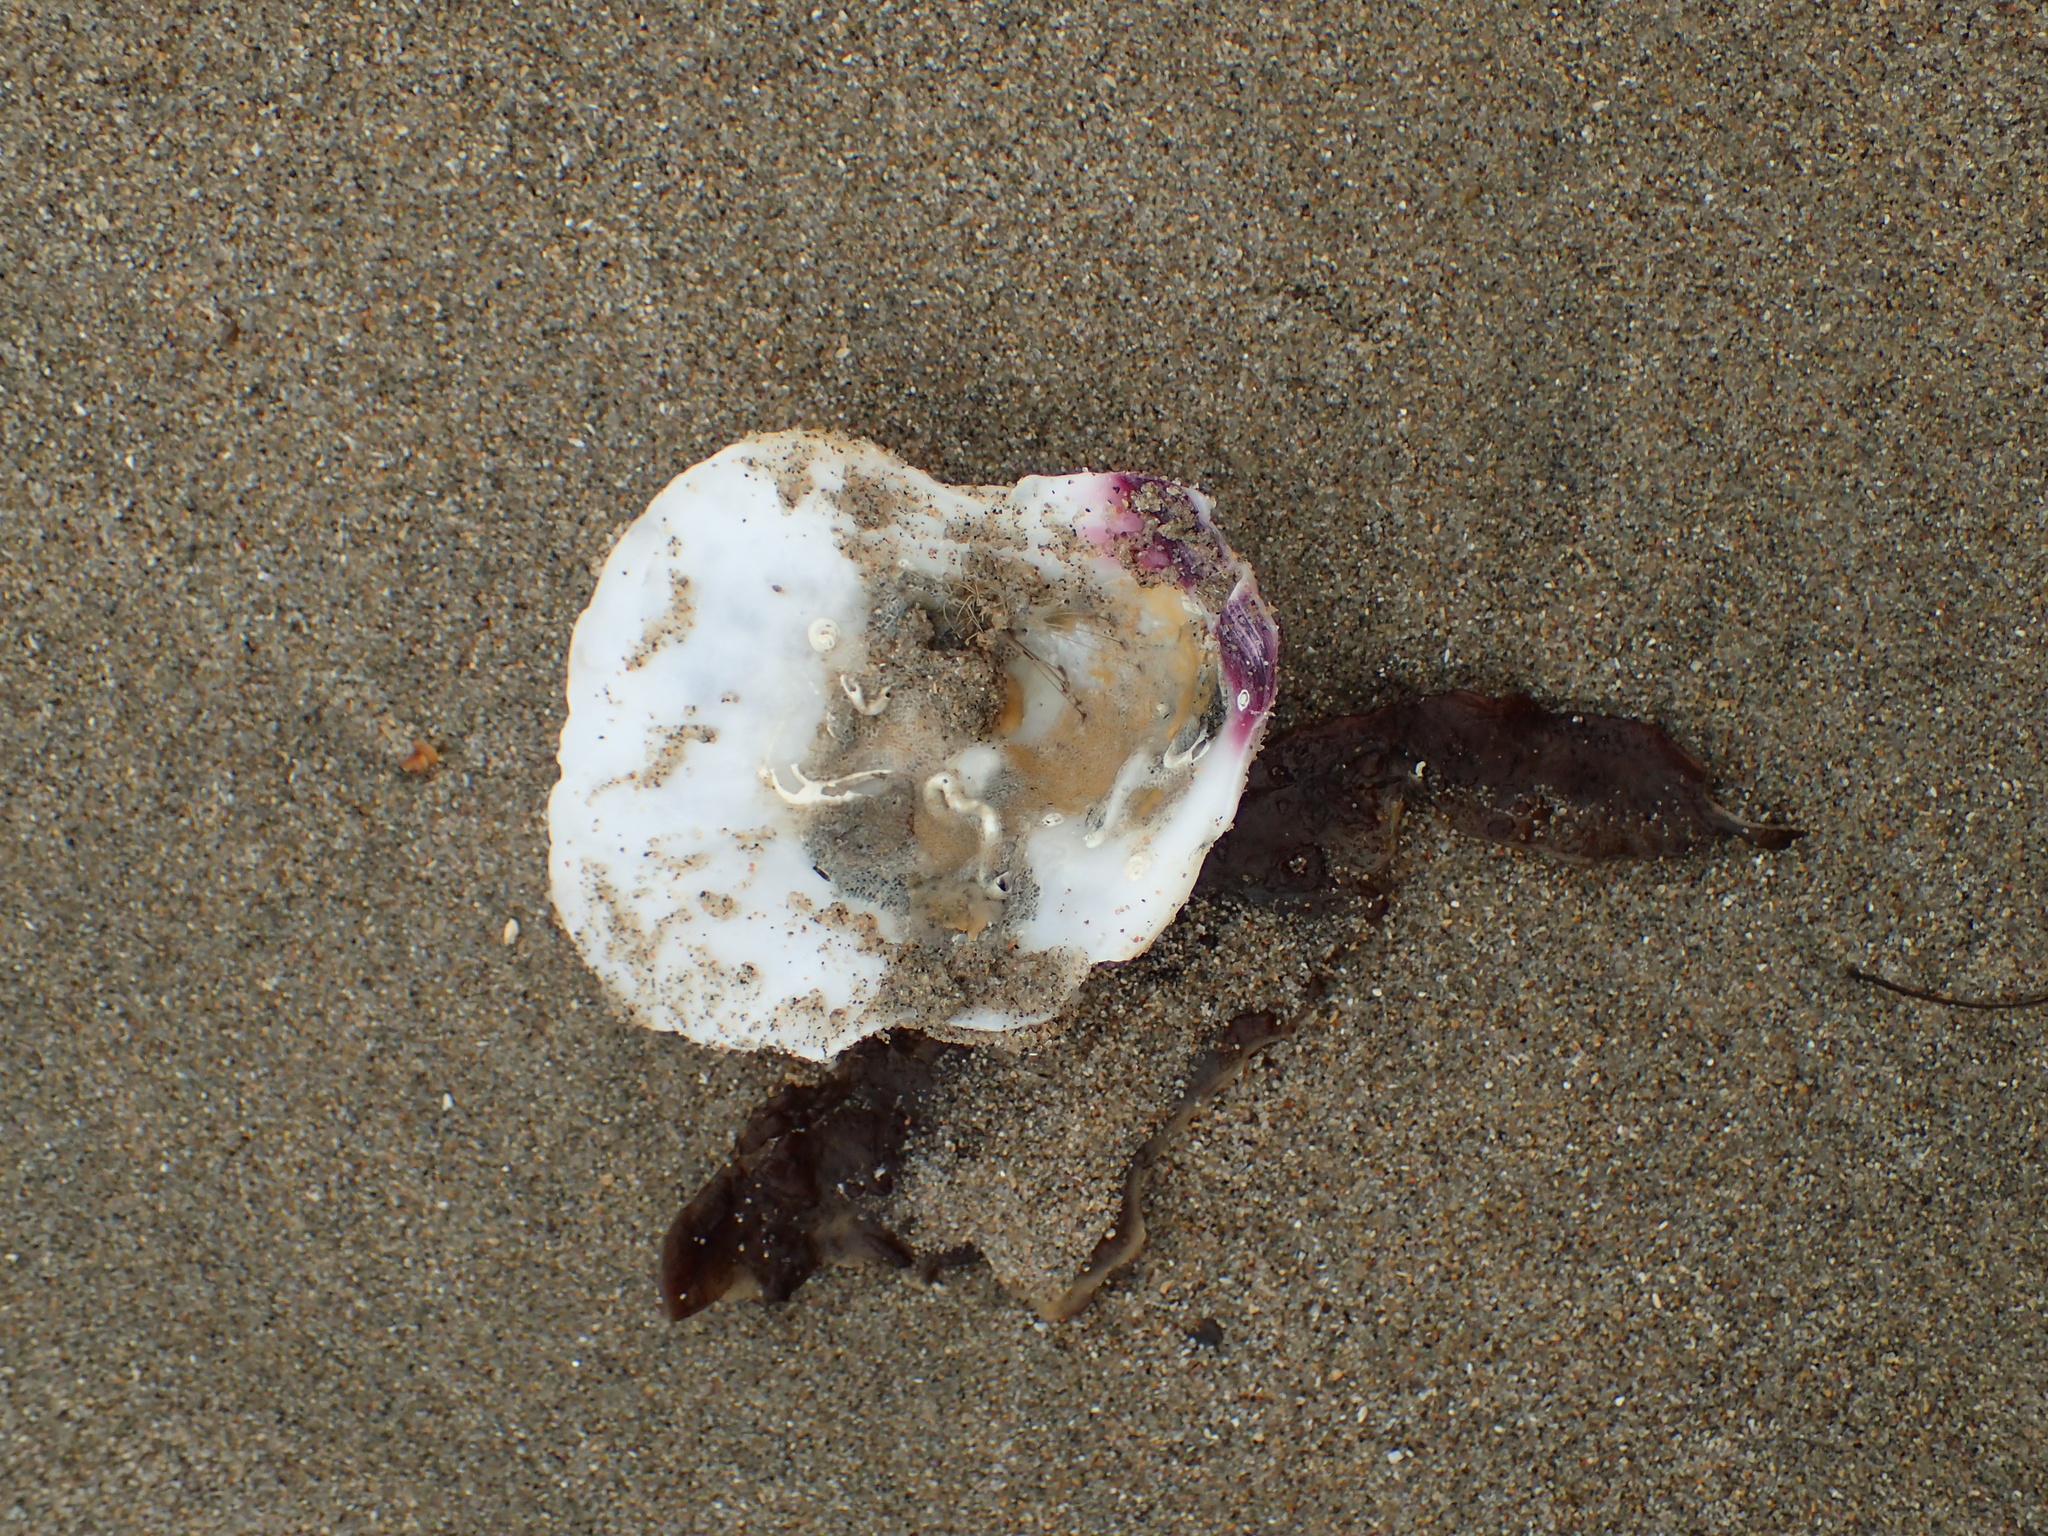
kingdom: Animalia
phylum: Mollusca
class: Bivalvia
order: Pectinida
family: Pectinidae
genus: Crassadoma
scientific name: Crassadoma gigantea
